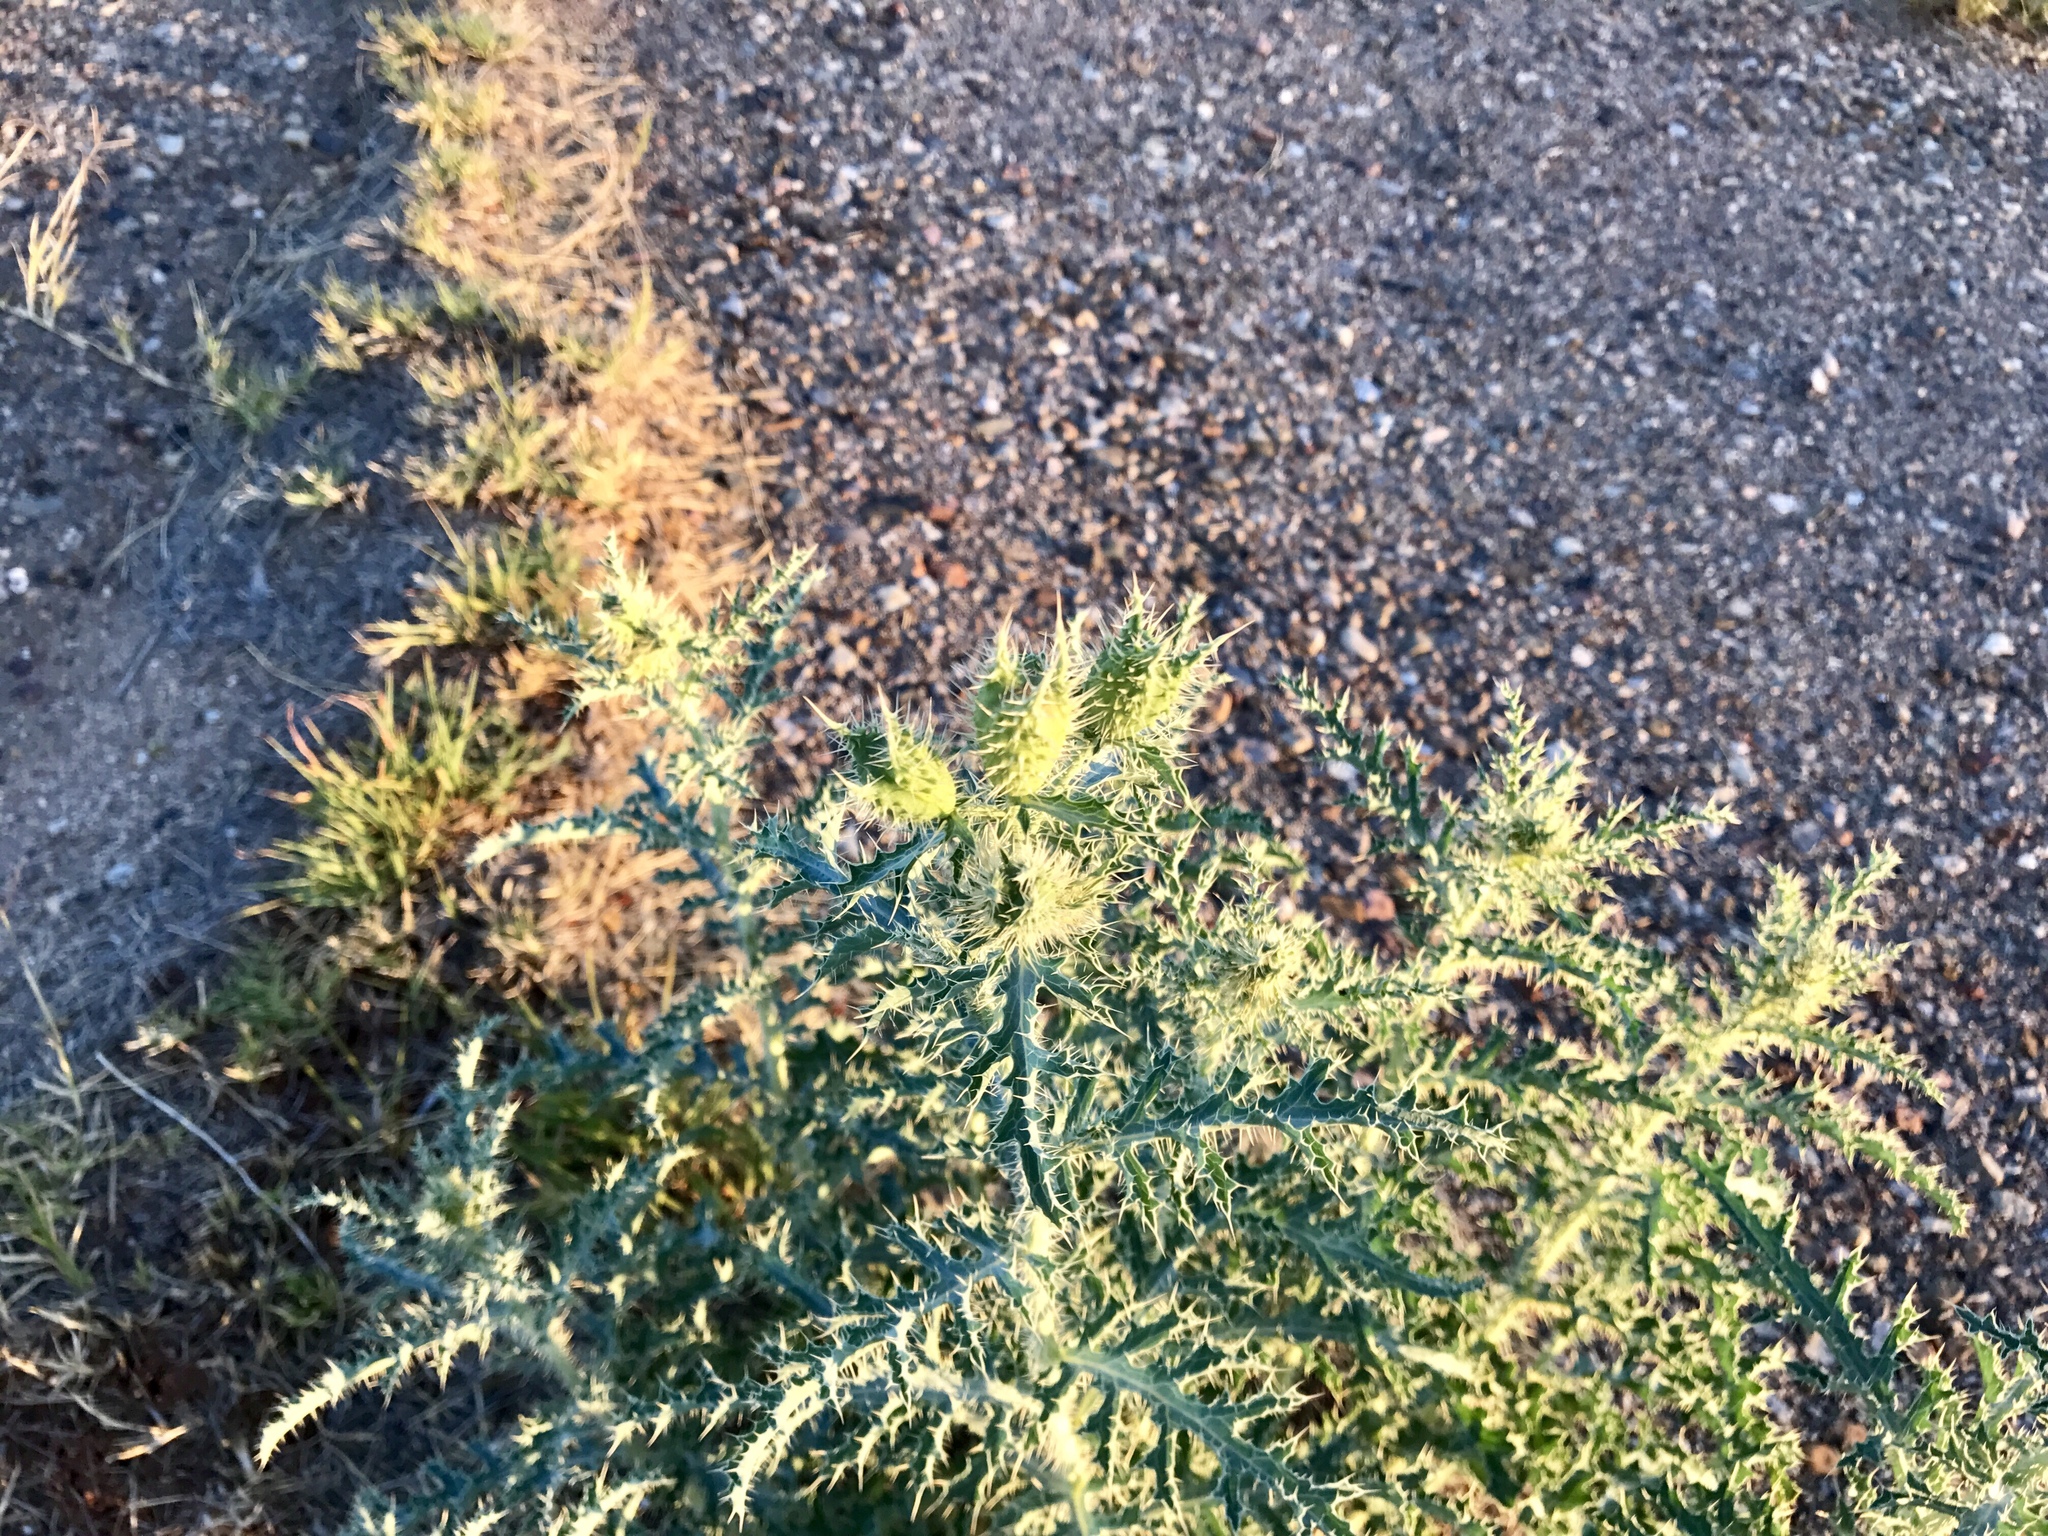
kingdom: Plantae
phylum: Tracheophyta
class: Magnoliopsida
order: Ranunculales
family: Papaveraceae
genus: Argemone
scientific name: Argemone pleiacantha
